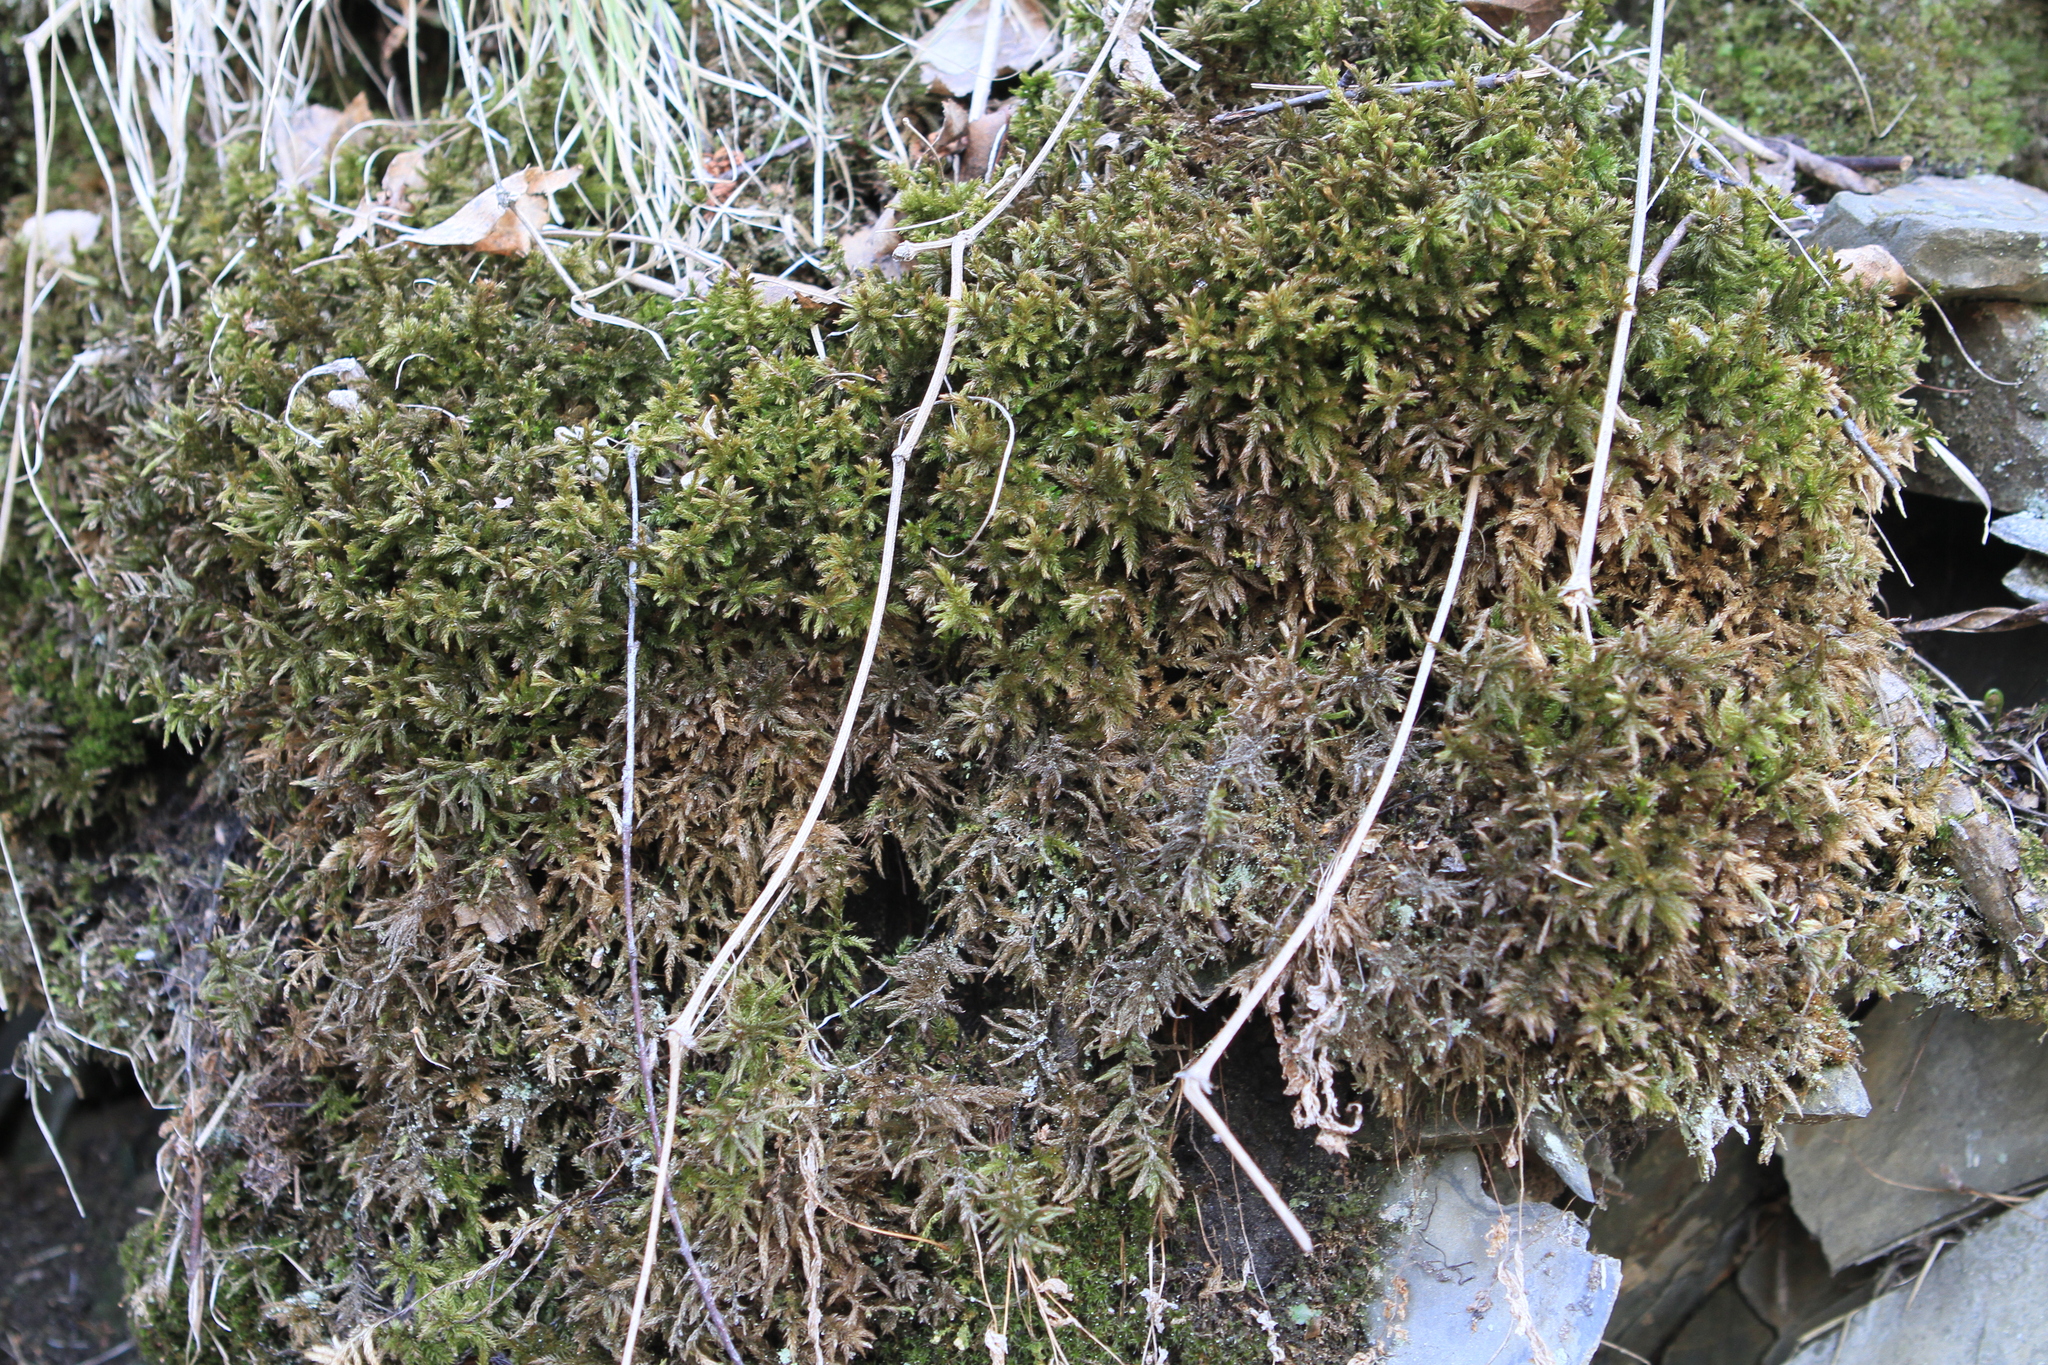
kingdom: Plantae
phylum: Bryophyta
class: Bryopsida
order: Hypnales
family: Climaciaceae
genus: Climacium
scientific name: Climacium dendroides
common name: Northern tree moss
